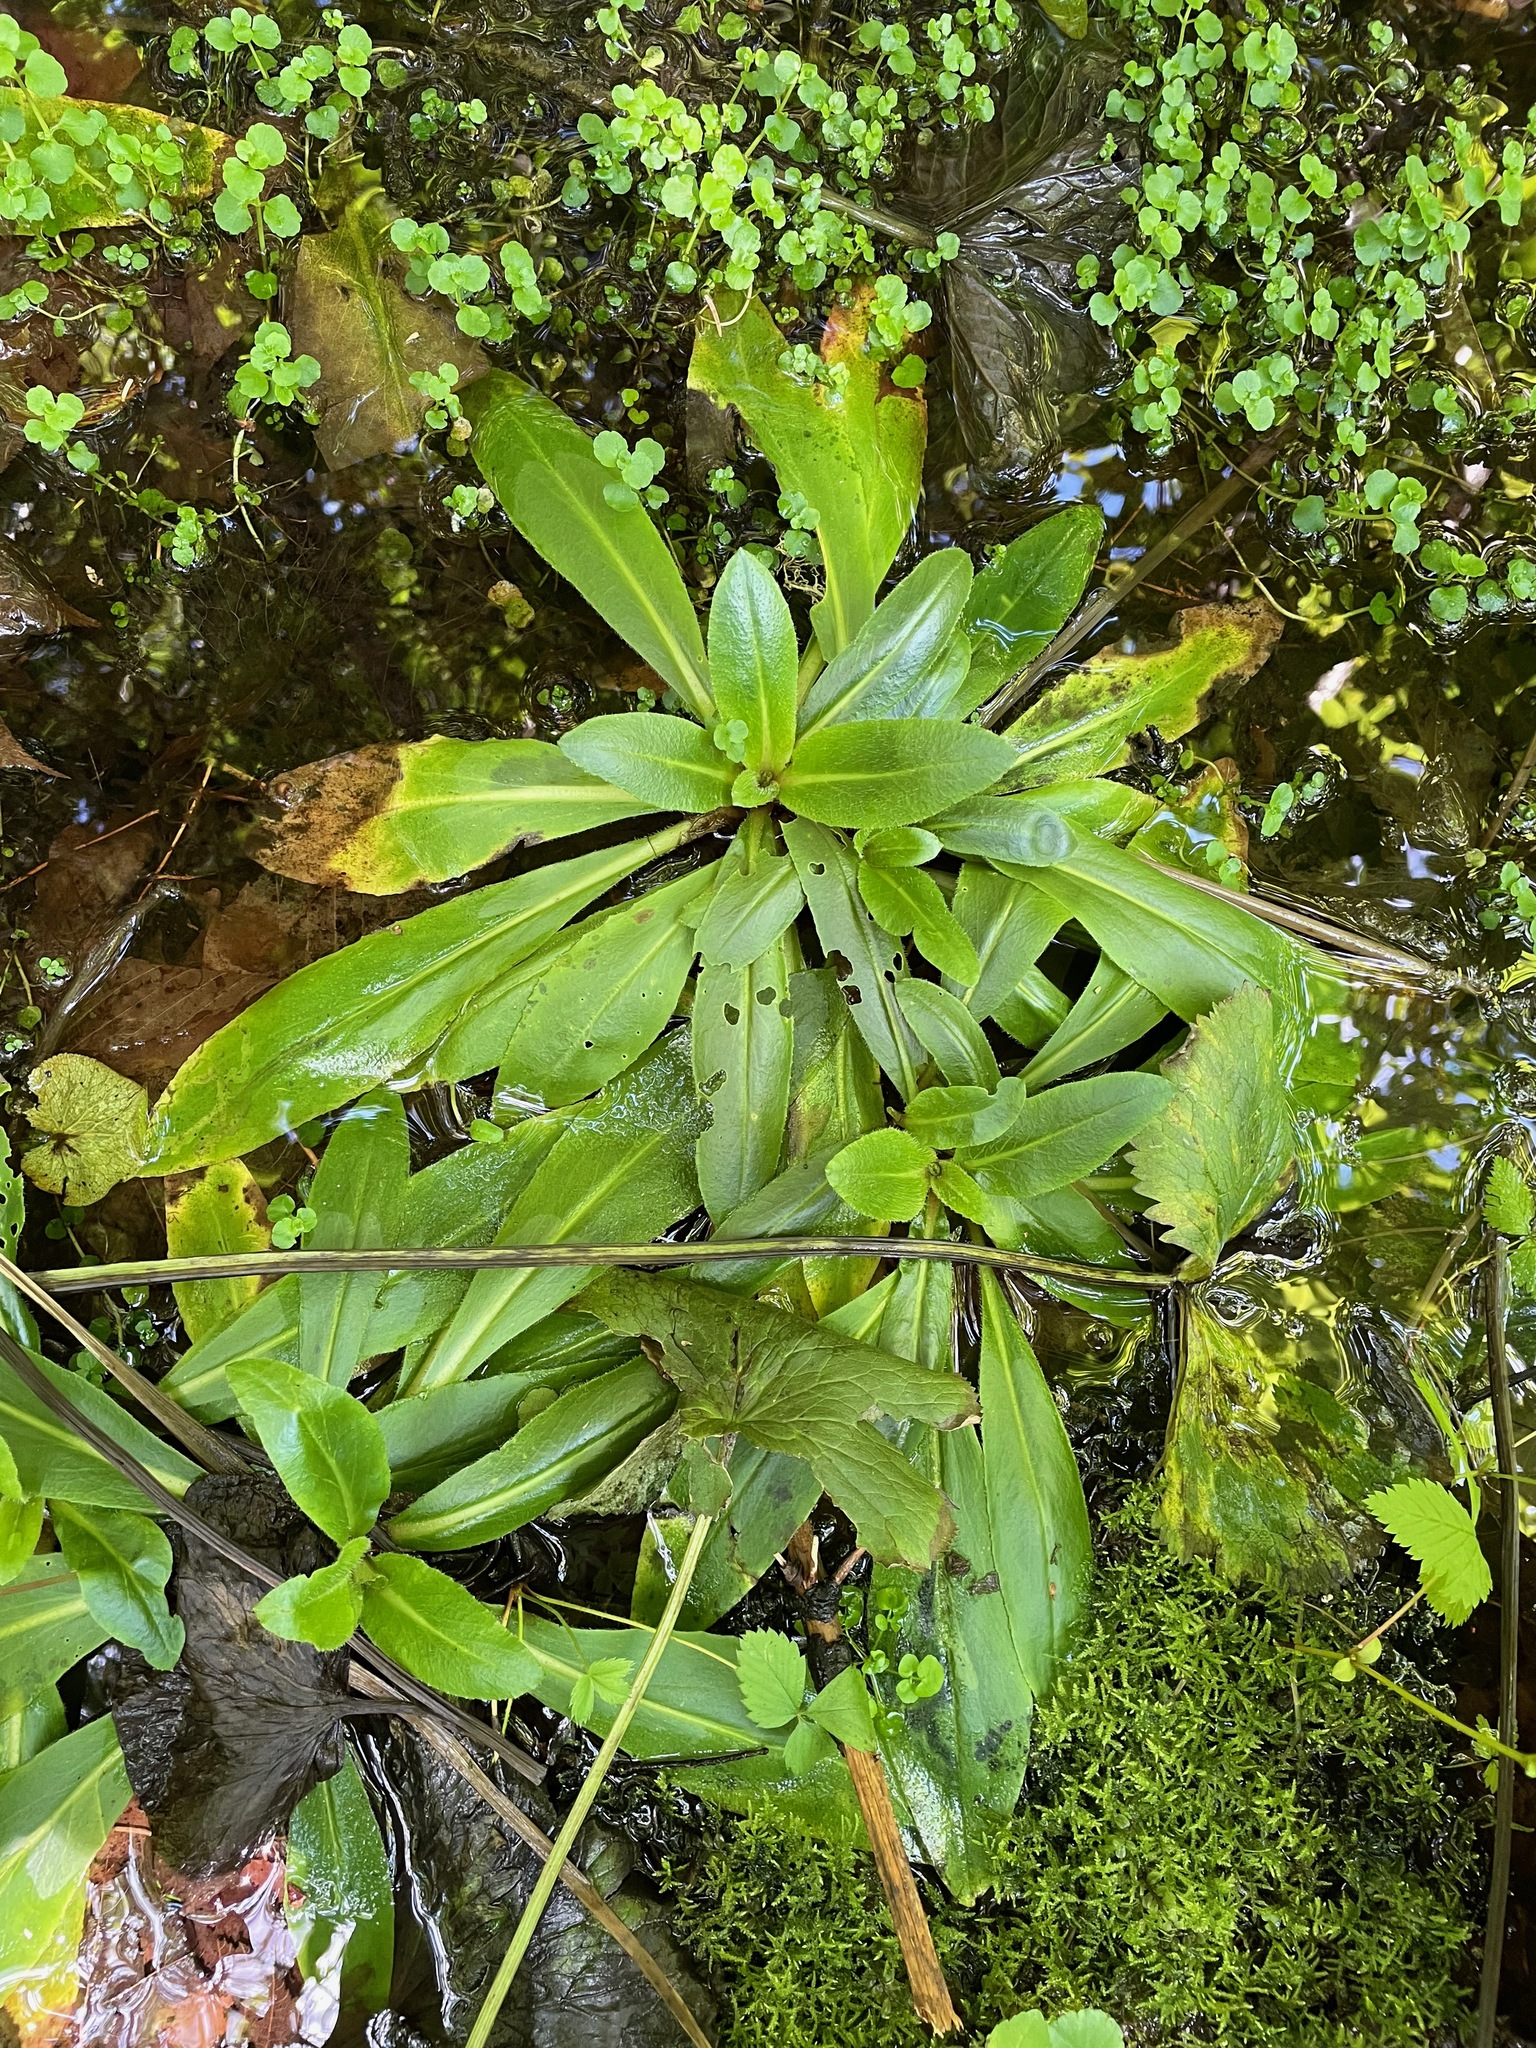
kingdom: Plantae
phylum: Tracheophyta
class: Magnoliopsida
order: Saxifragales
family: Saxifragaceae
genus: Micranthes
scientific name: Micranthes pensylvanica
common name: Marsh saxifrage
